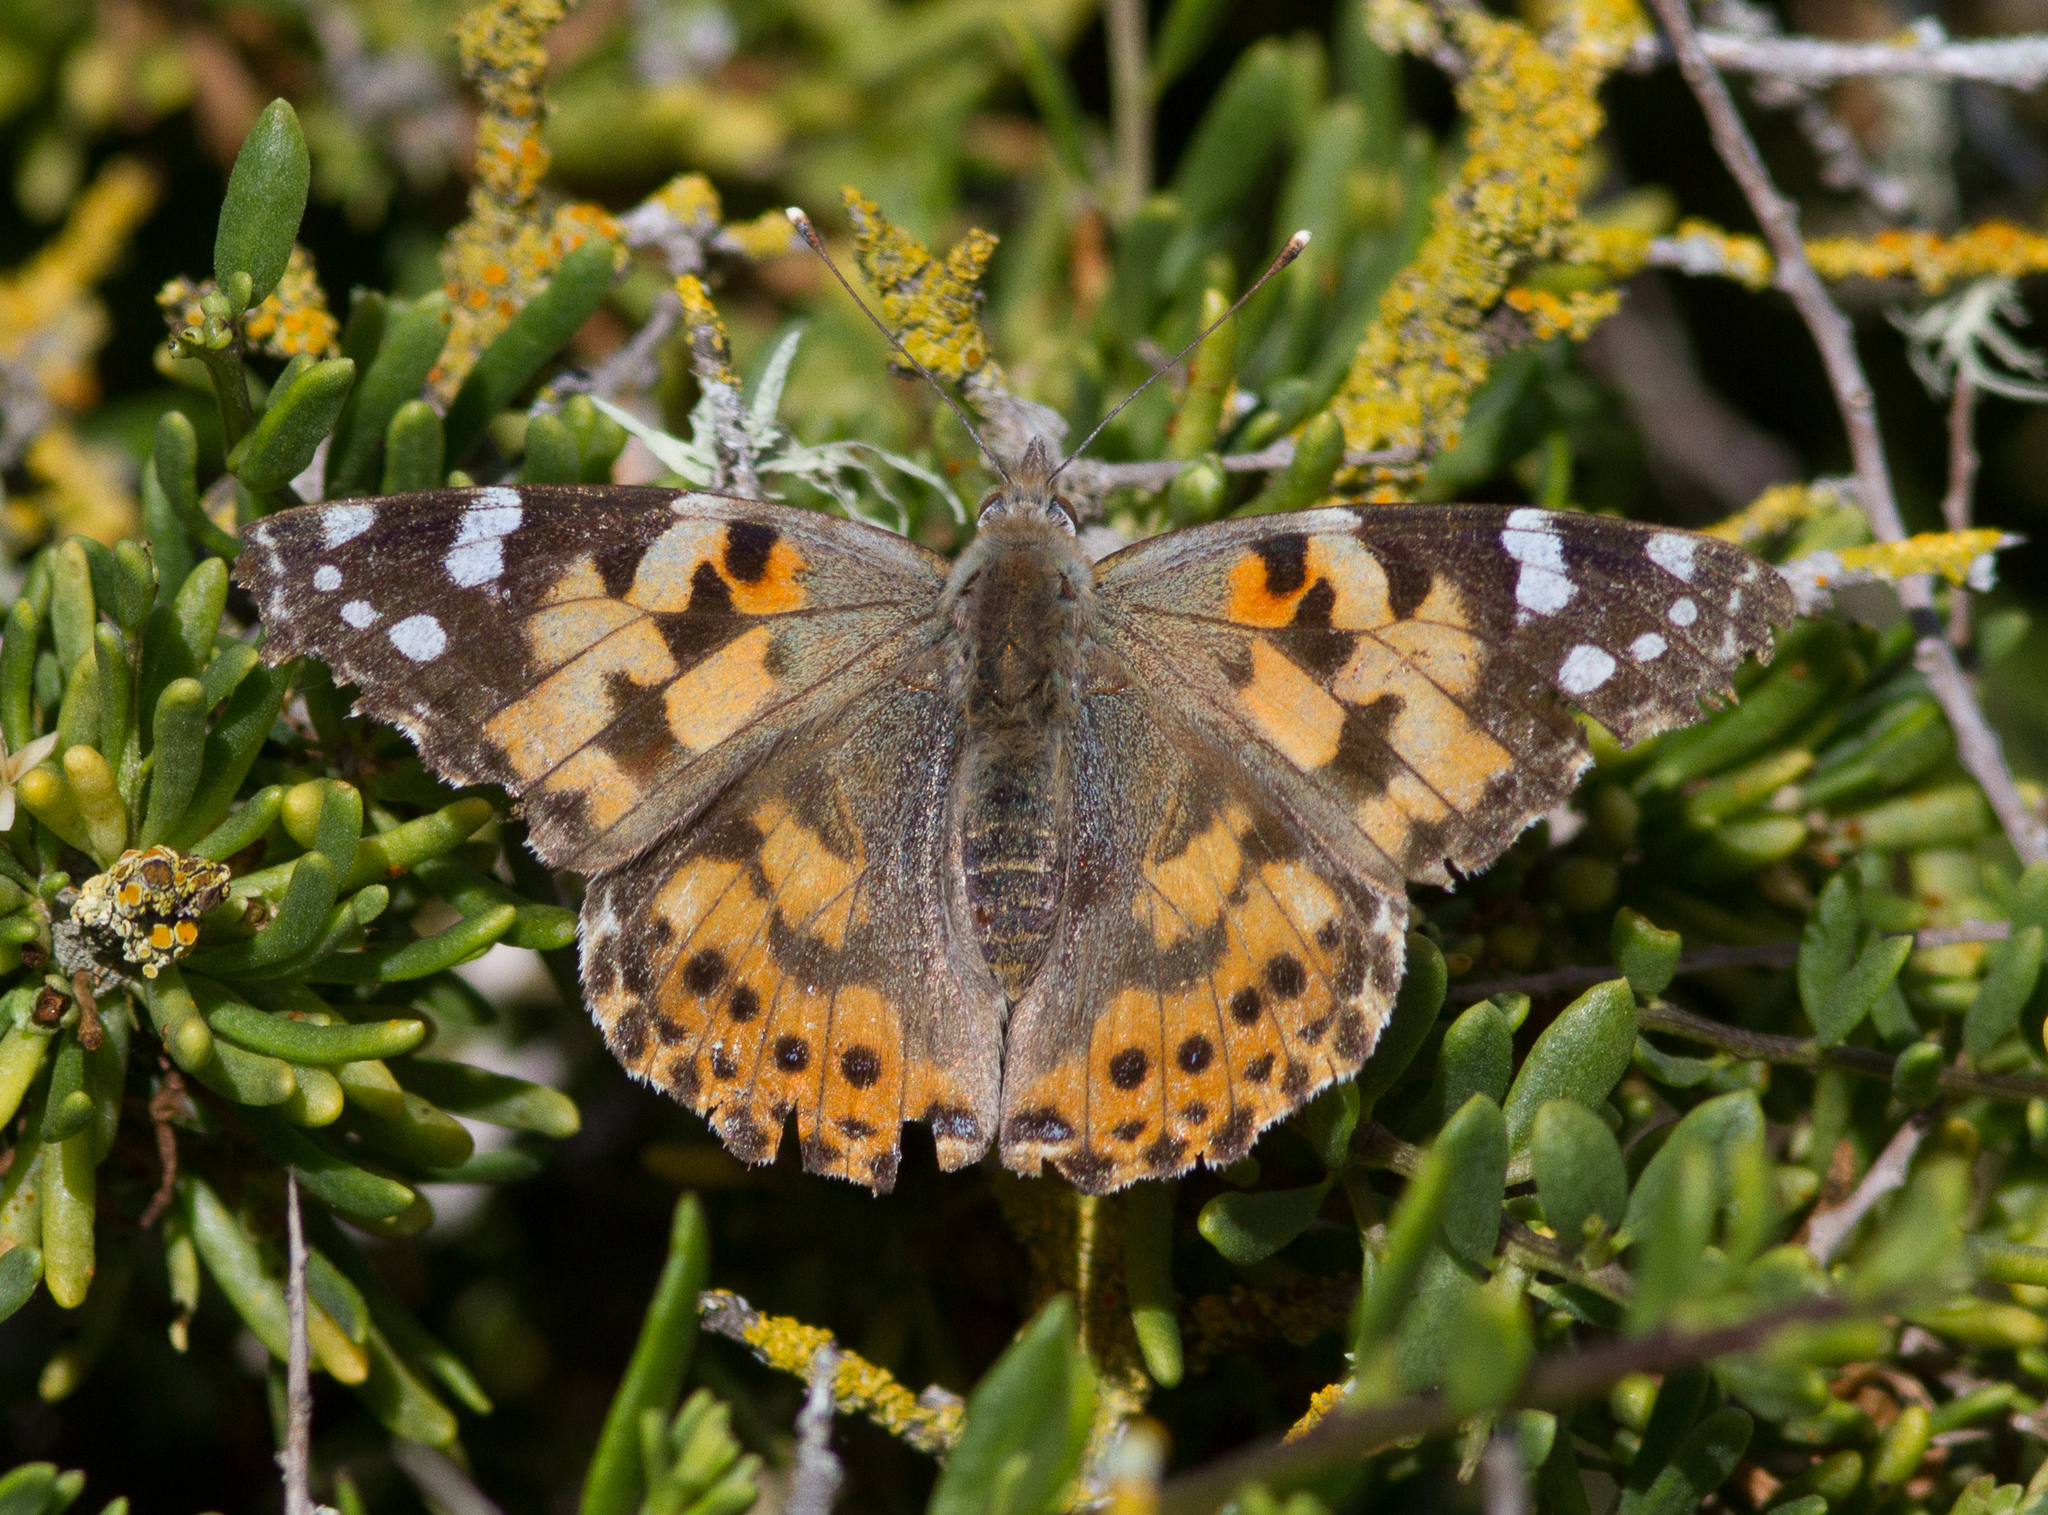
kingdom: Animalia
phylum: Arthropoda
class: Insecta
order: Lepidoptera
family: Nymphalidae
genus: Vanessa
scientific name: Vanessa cardui
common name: Painted lady
